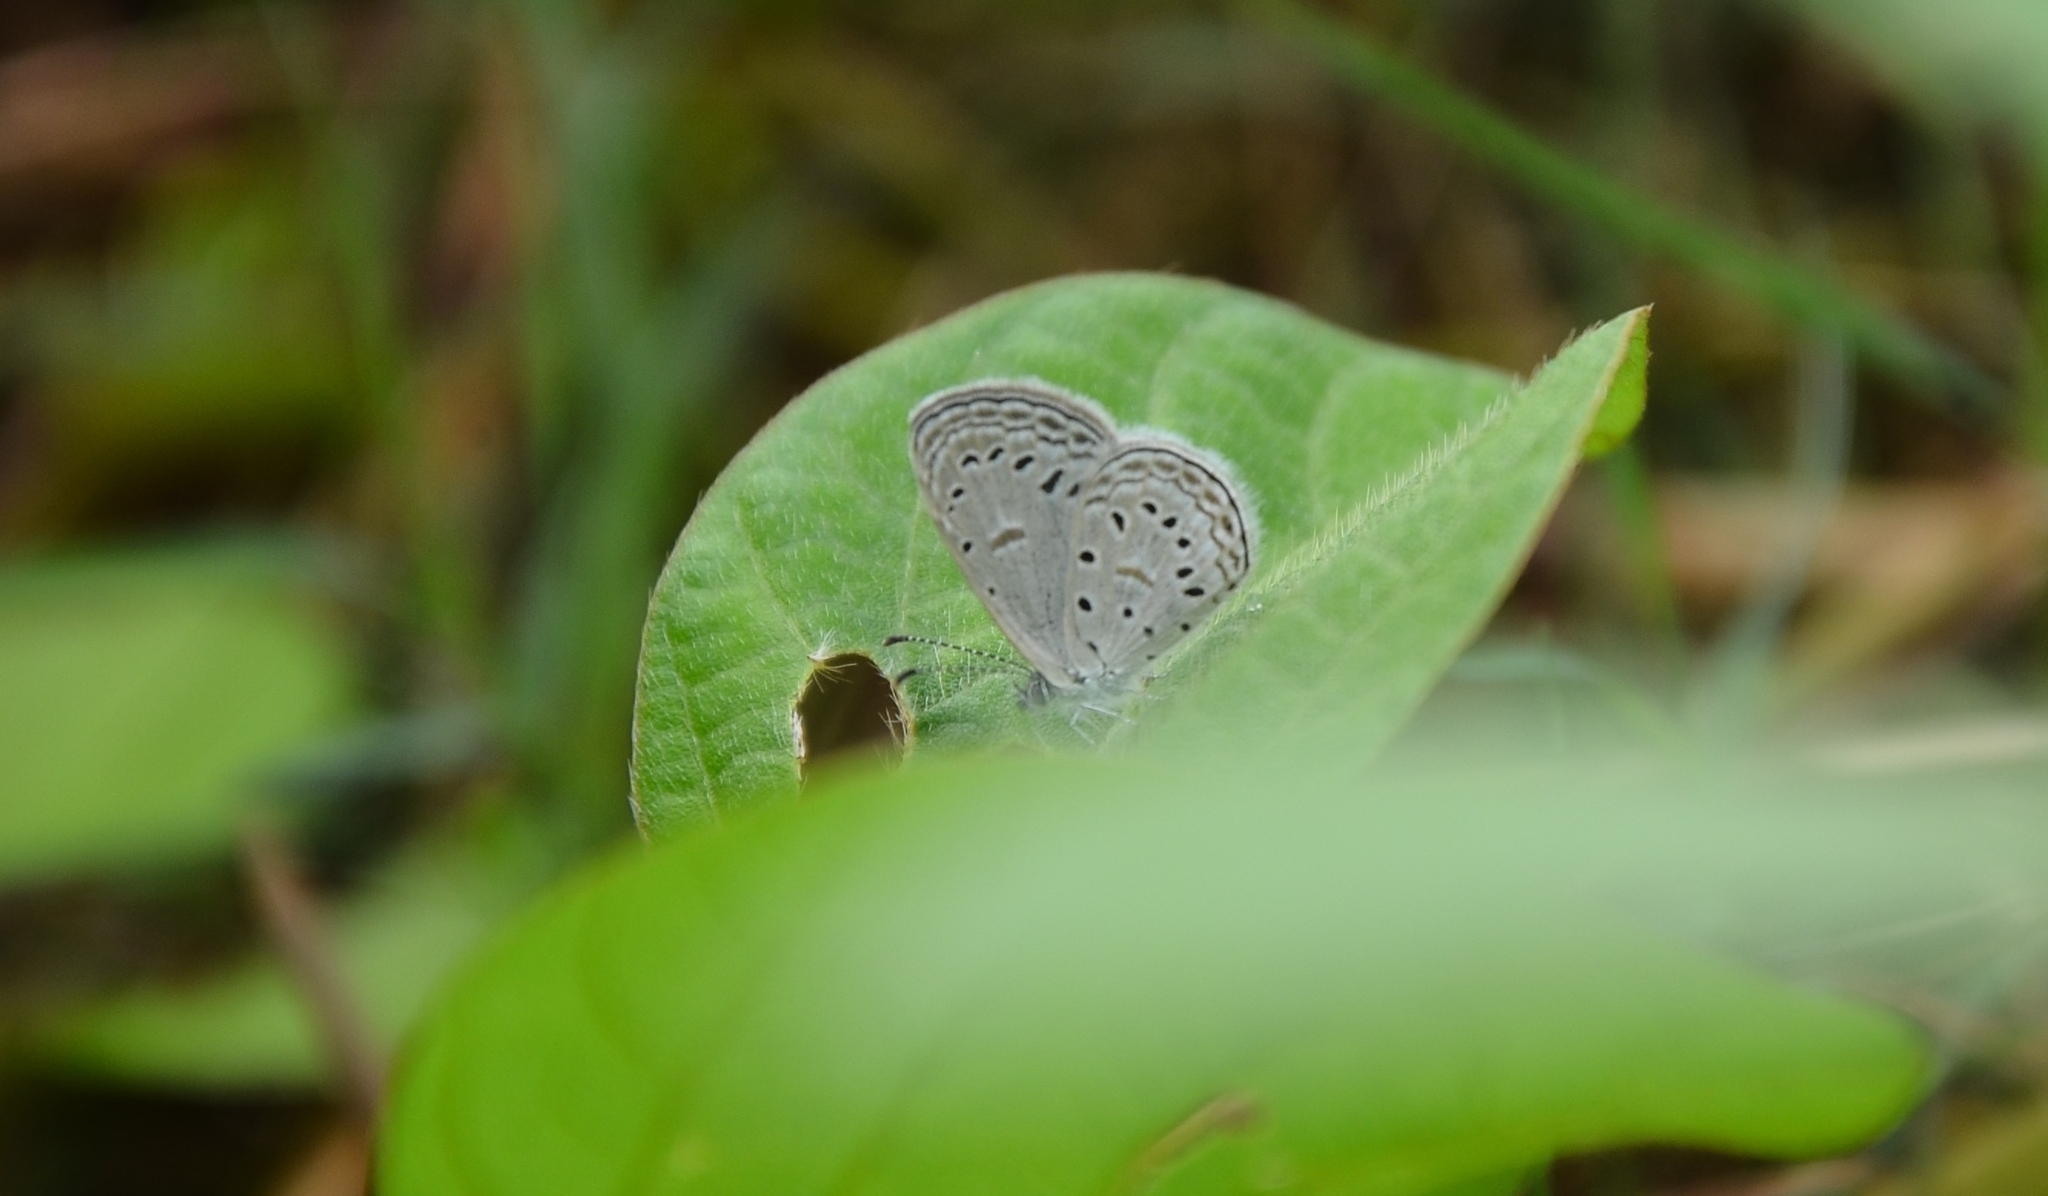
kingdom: Animalia
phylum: Arthropoda
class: Insecta
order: Lepidoptera
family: Lycaenidae
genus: Zizula
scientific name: Zizula hylax
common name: Gaika blue
